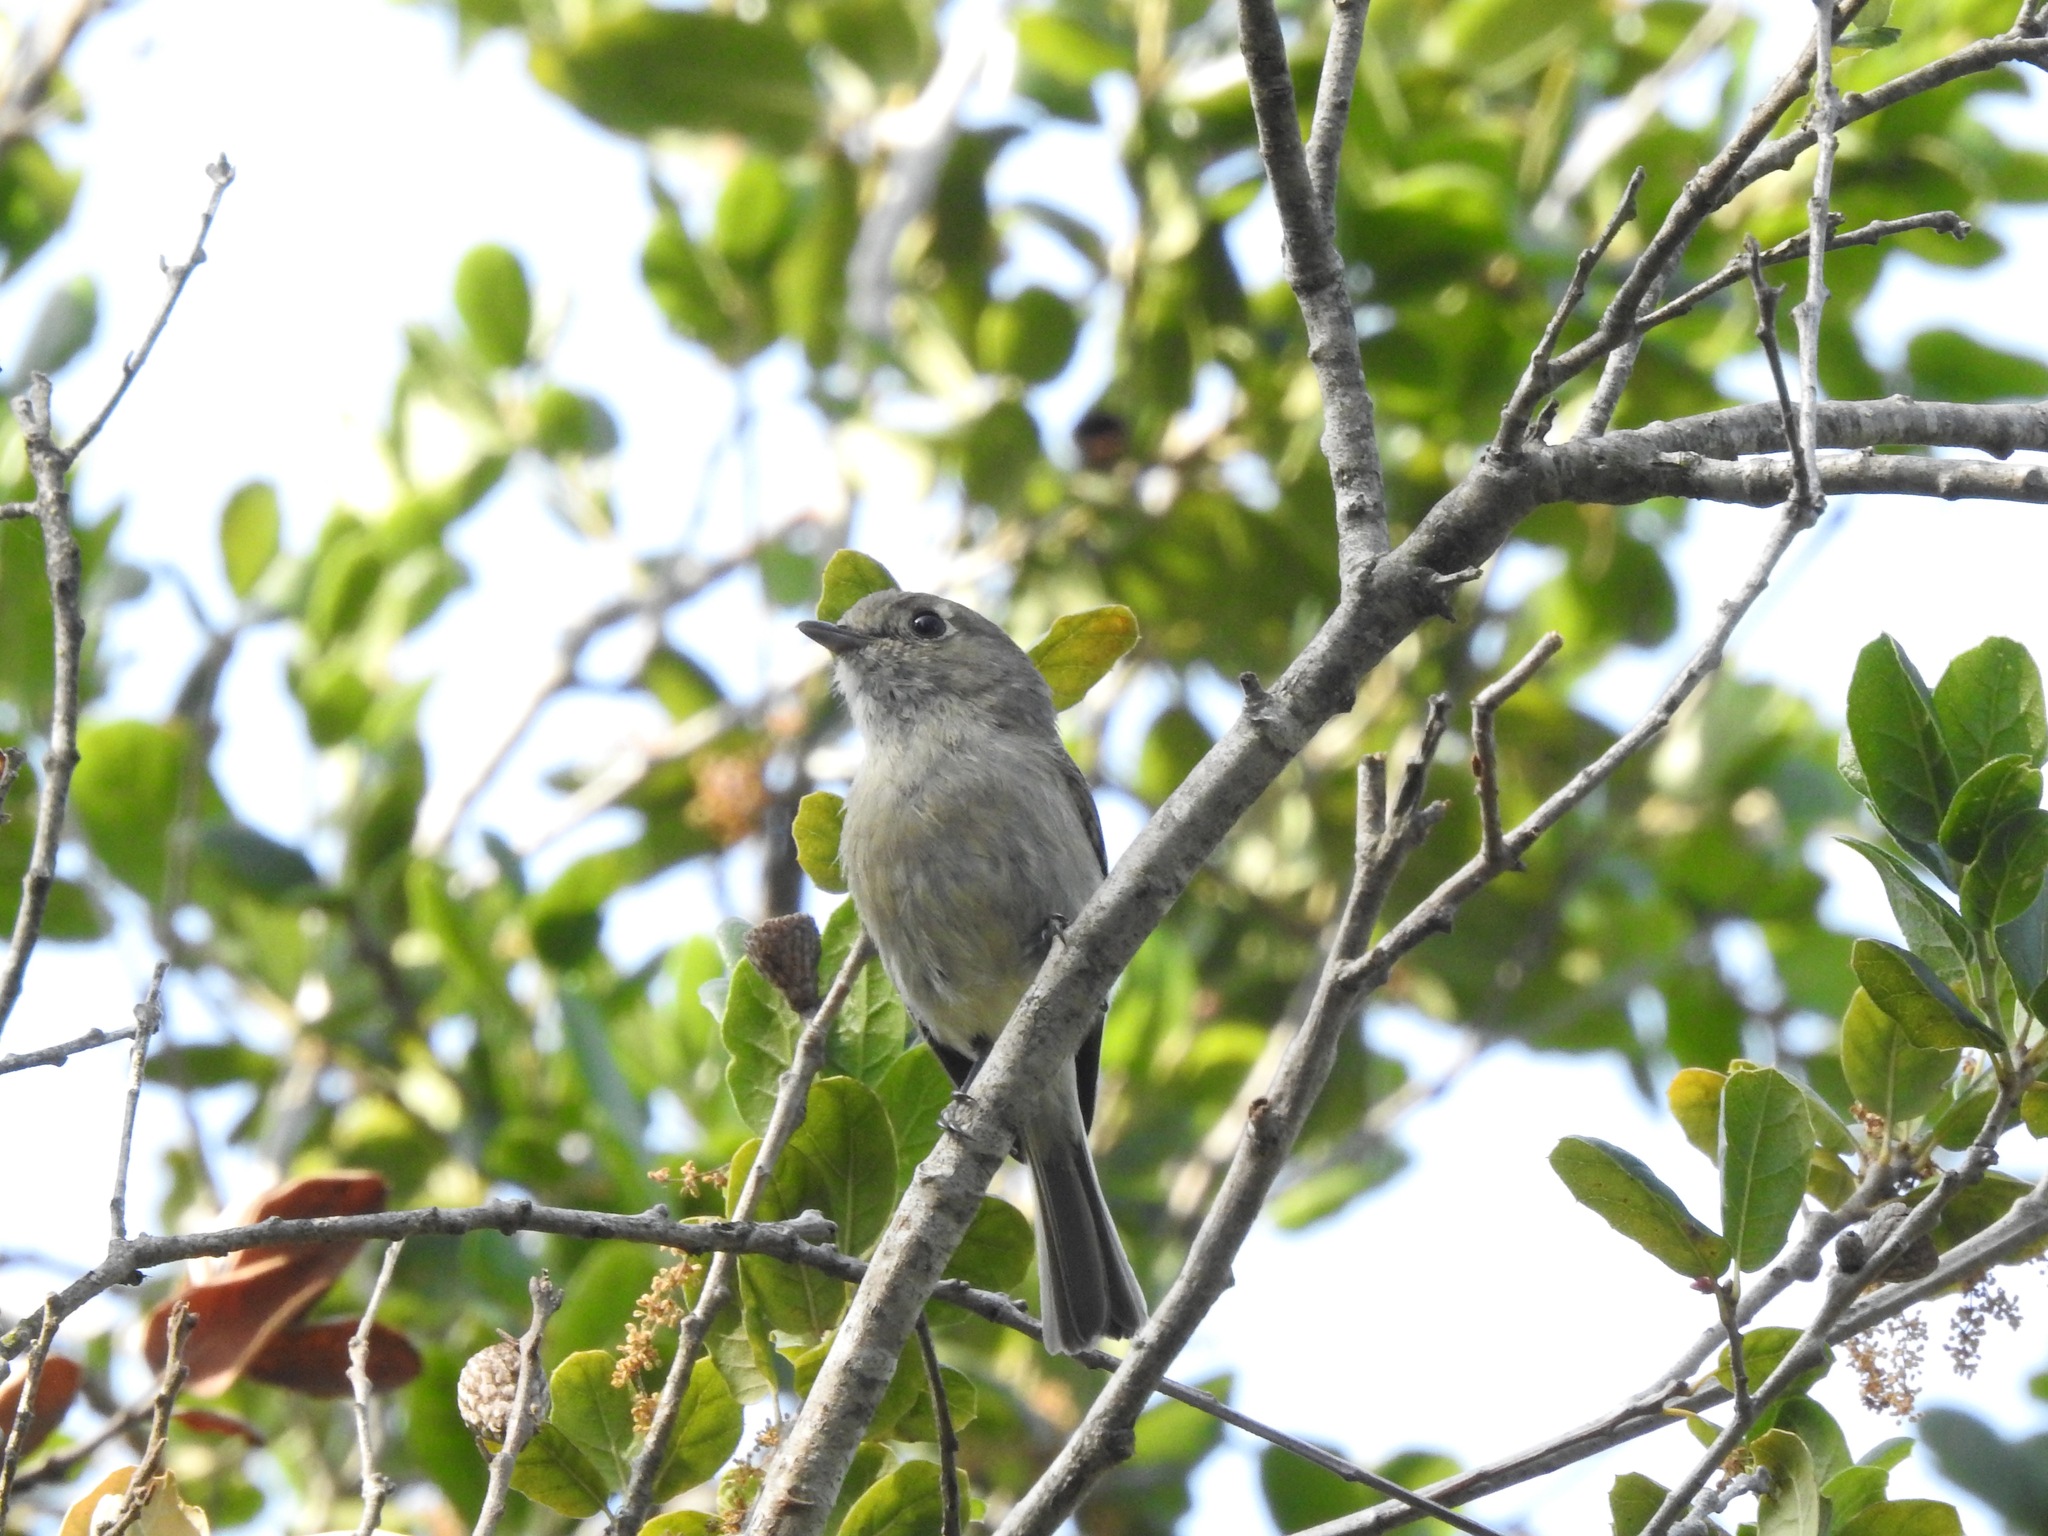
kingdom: Animalia
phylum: Chordata
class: Aves
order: Passeriformes
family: Vireonidae
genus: Vireo
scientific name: Vireo huttoni
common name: Hutton's vireo
